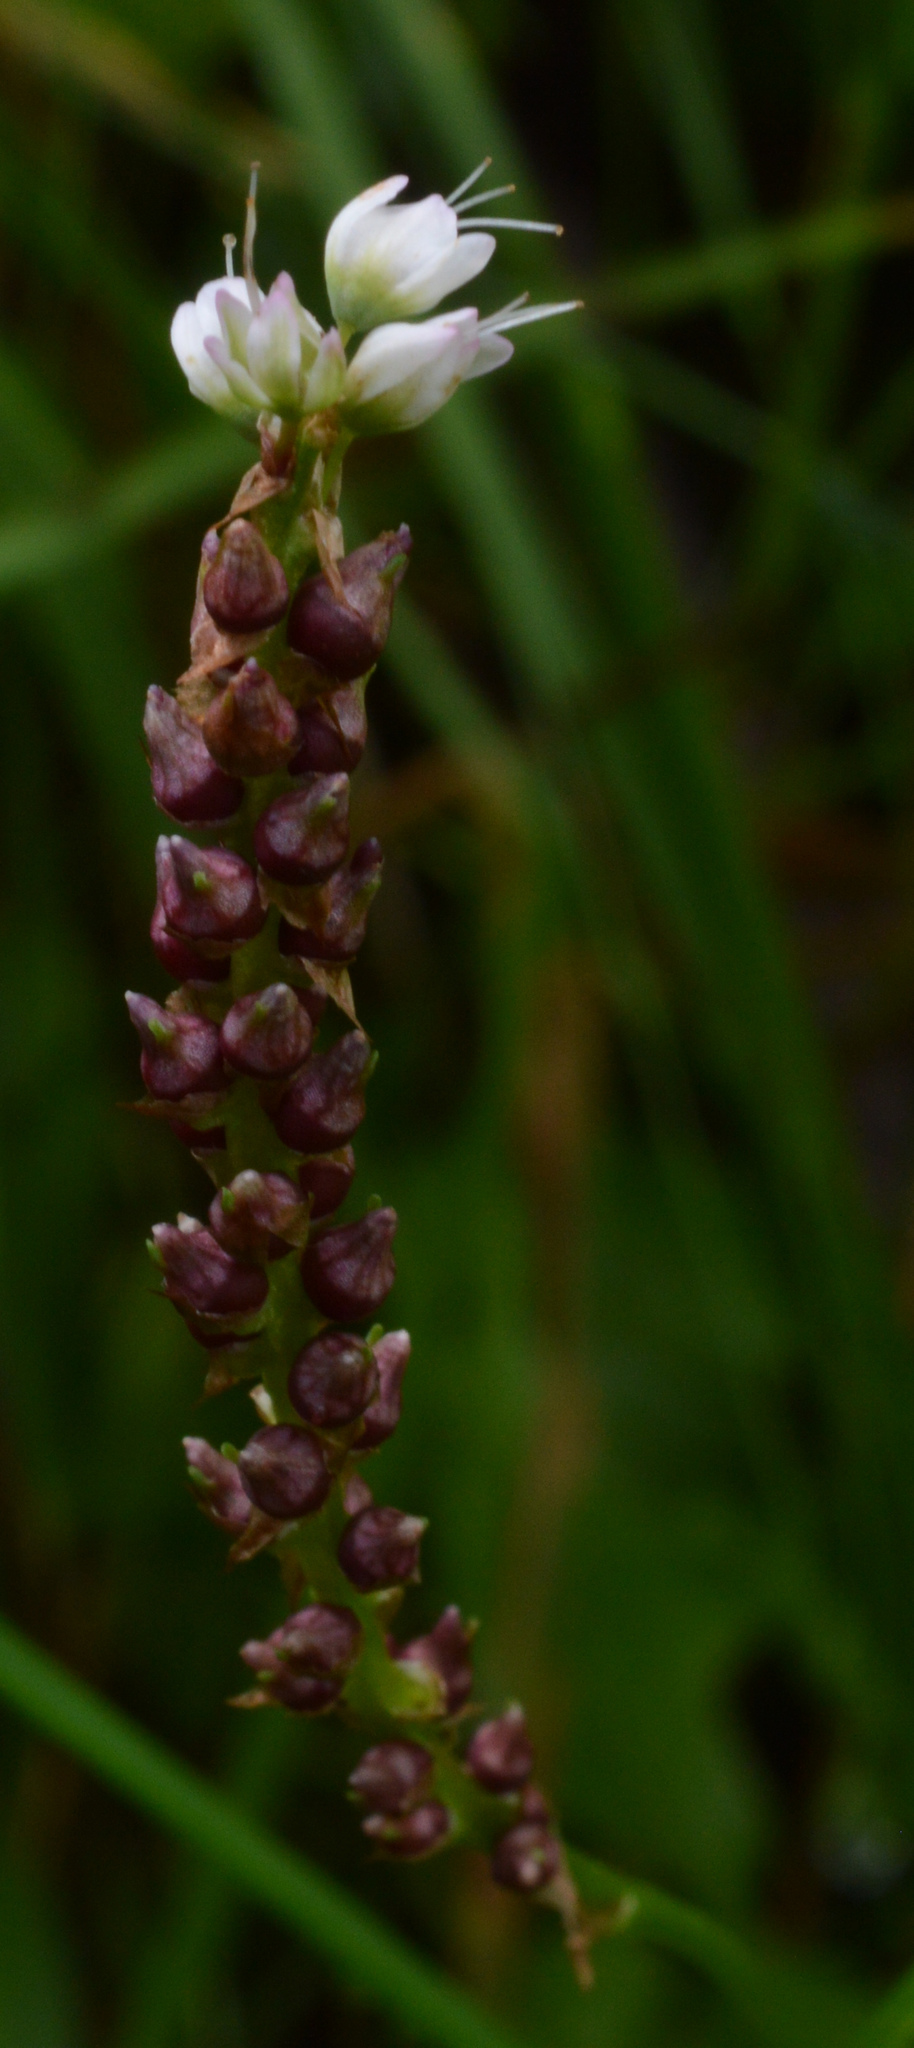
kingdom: Plantae
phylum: Tracheophyta
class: Magnoliopsida
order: Caryophyllales
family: Polygonaceae
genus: Bistorta
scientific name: Bistorta vivipara
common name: Alpine bistort
